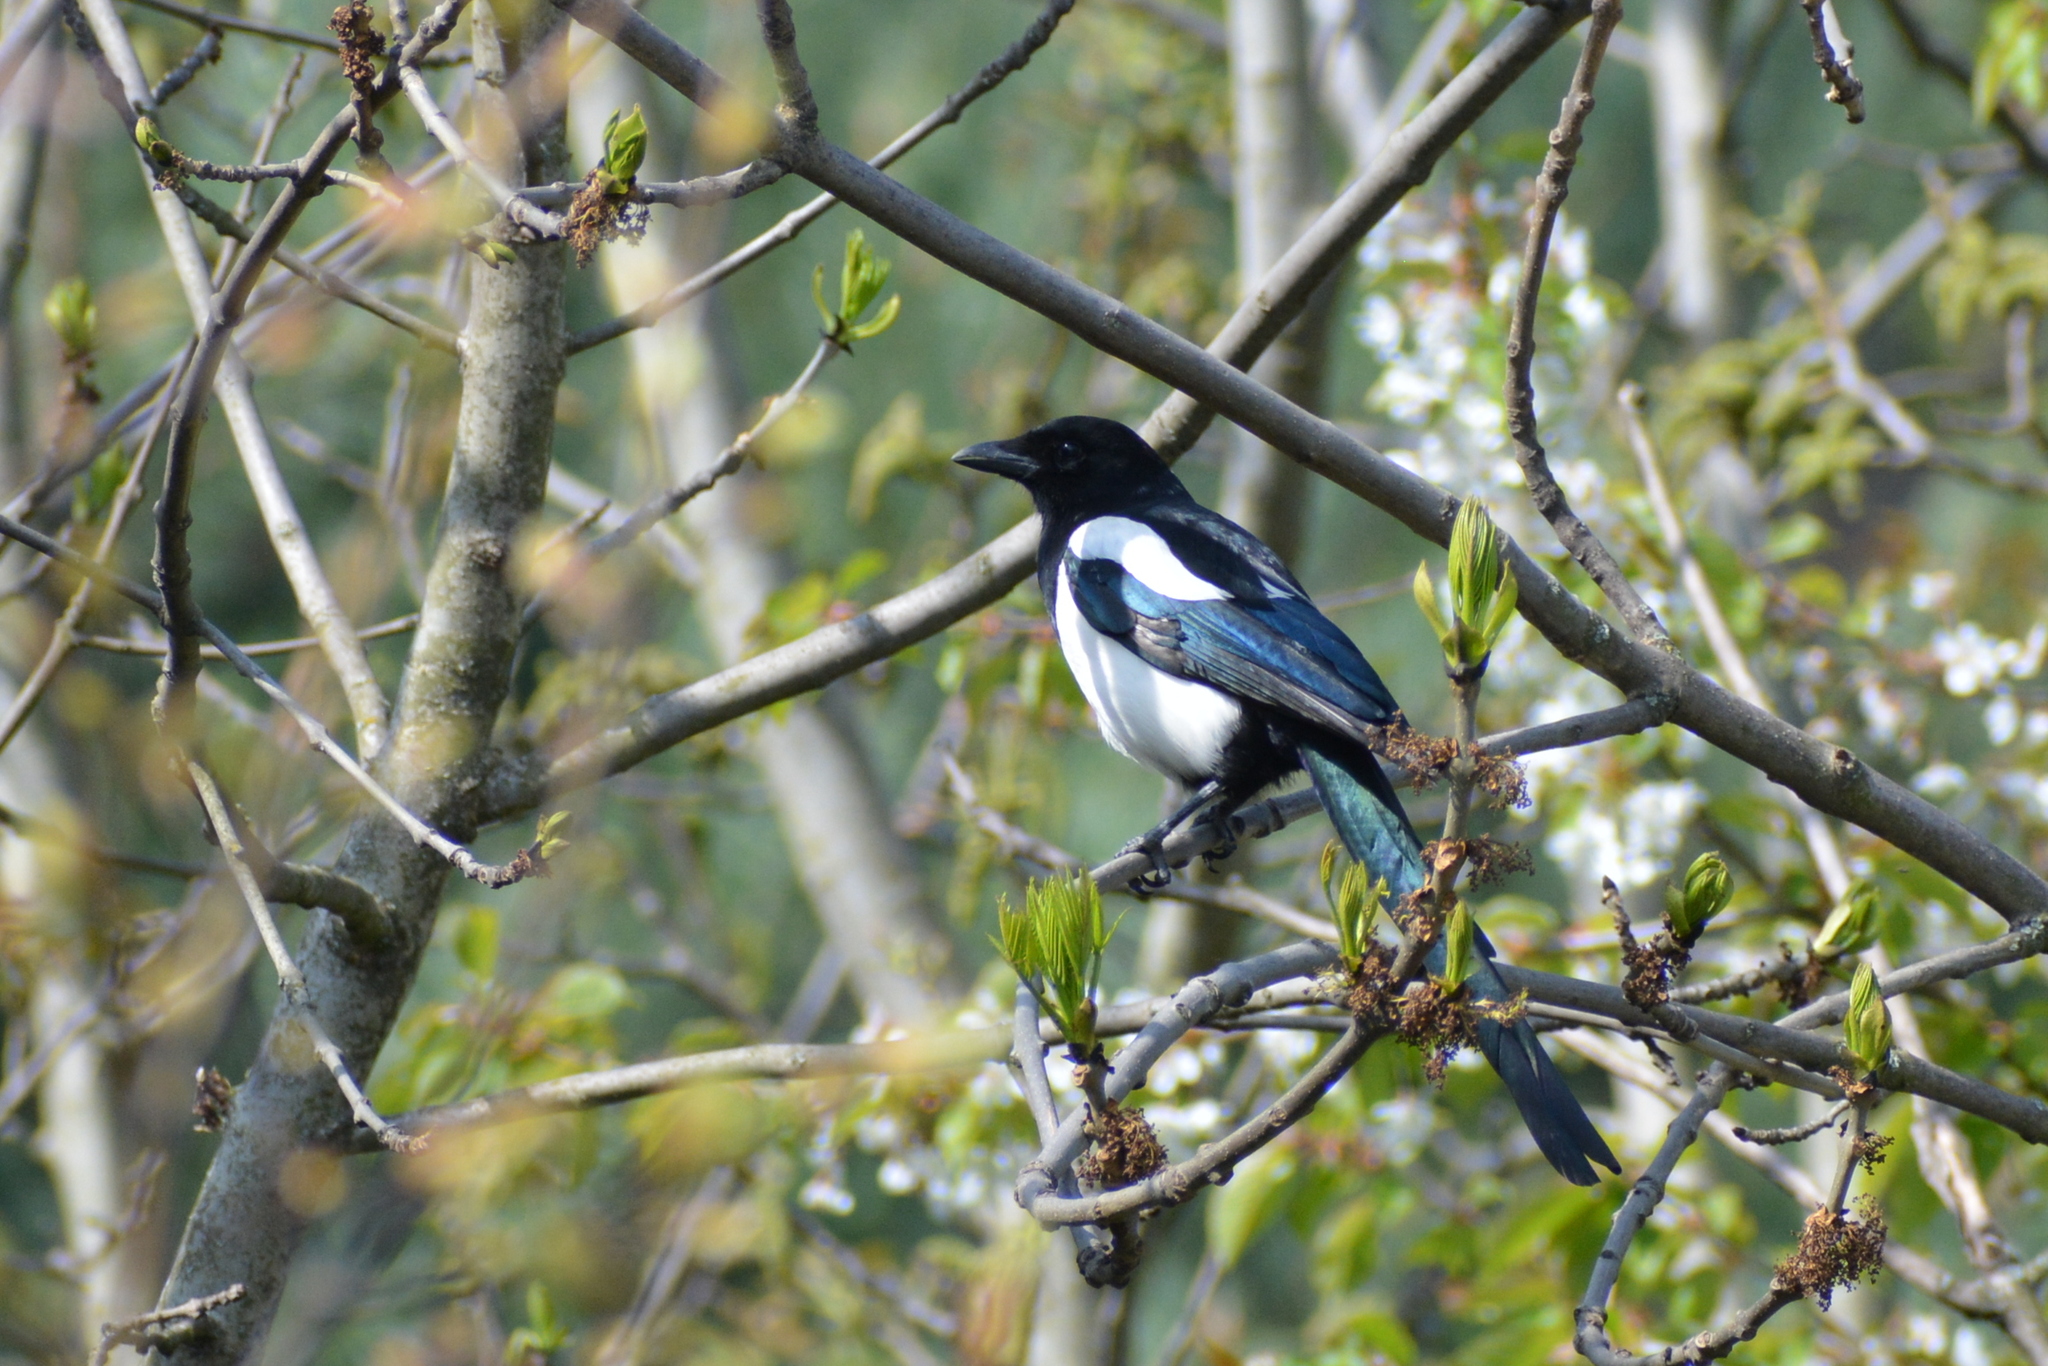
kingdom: Animalia
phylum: Chordata
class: Aves
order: Passeriformes
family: Corvidae
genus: Pica
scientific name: Pica pica
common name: Eurasian magpie
